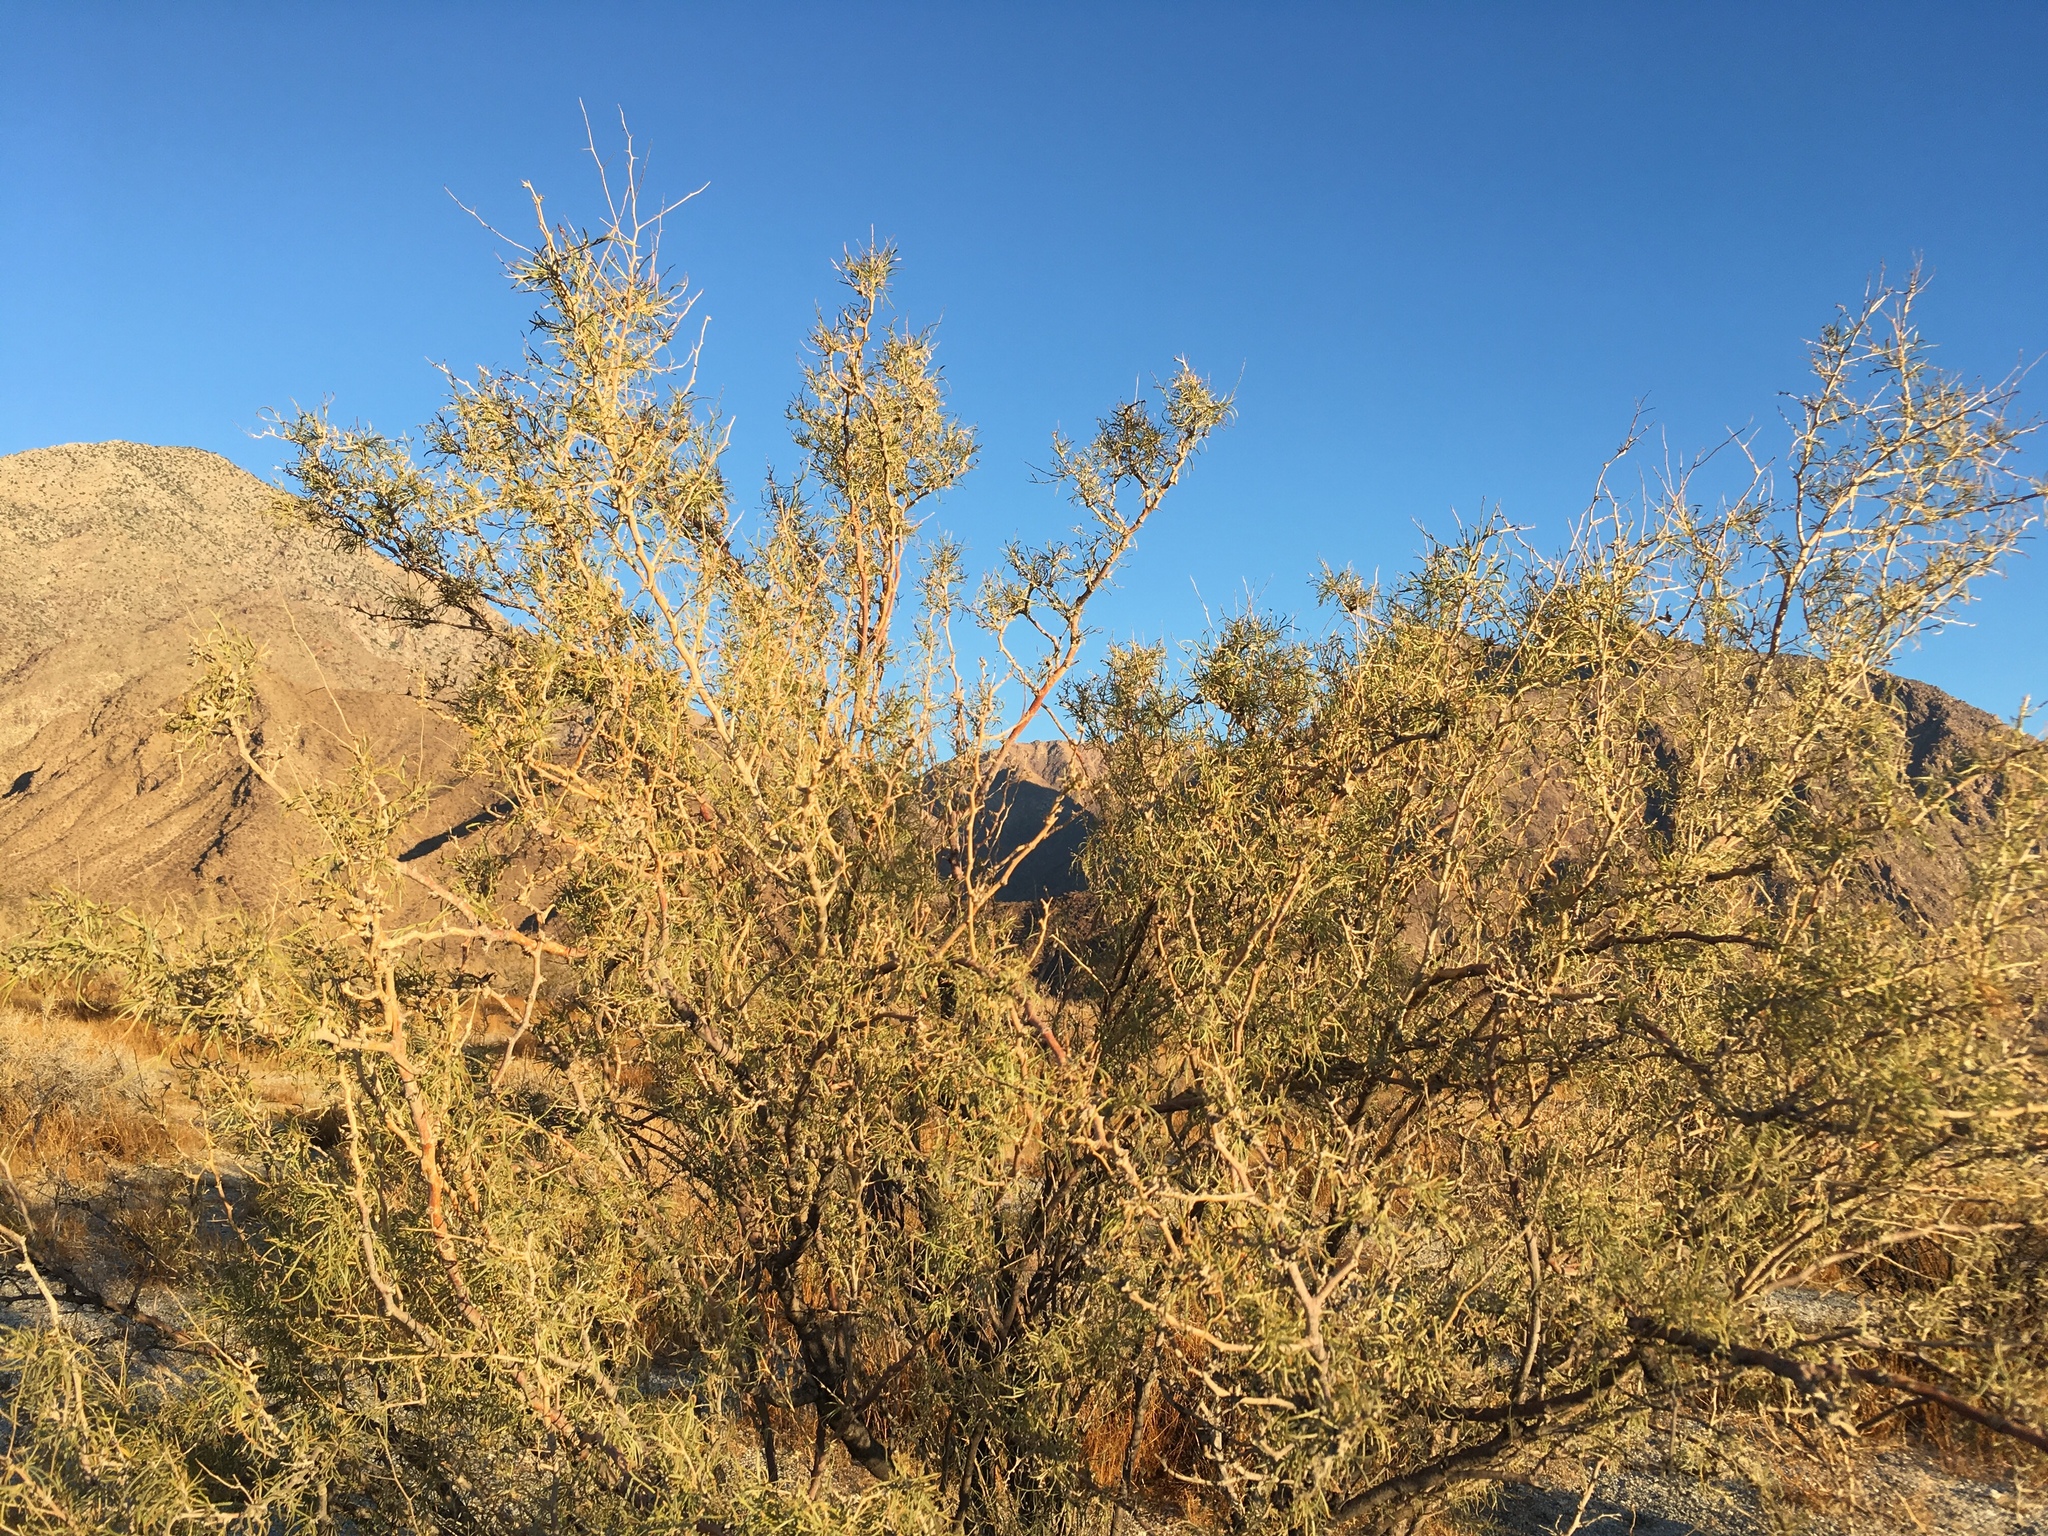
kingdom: Plantae
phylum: Tracheophyta
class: Magnoliopsida
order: Fabales
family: Fabaceae
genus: Psorothamnus
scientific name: Psorothamnus schottii
